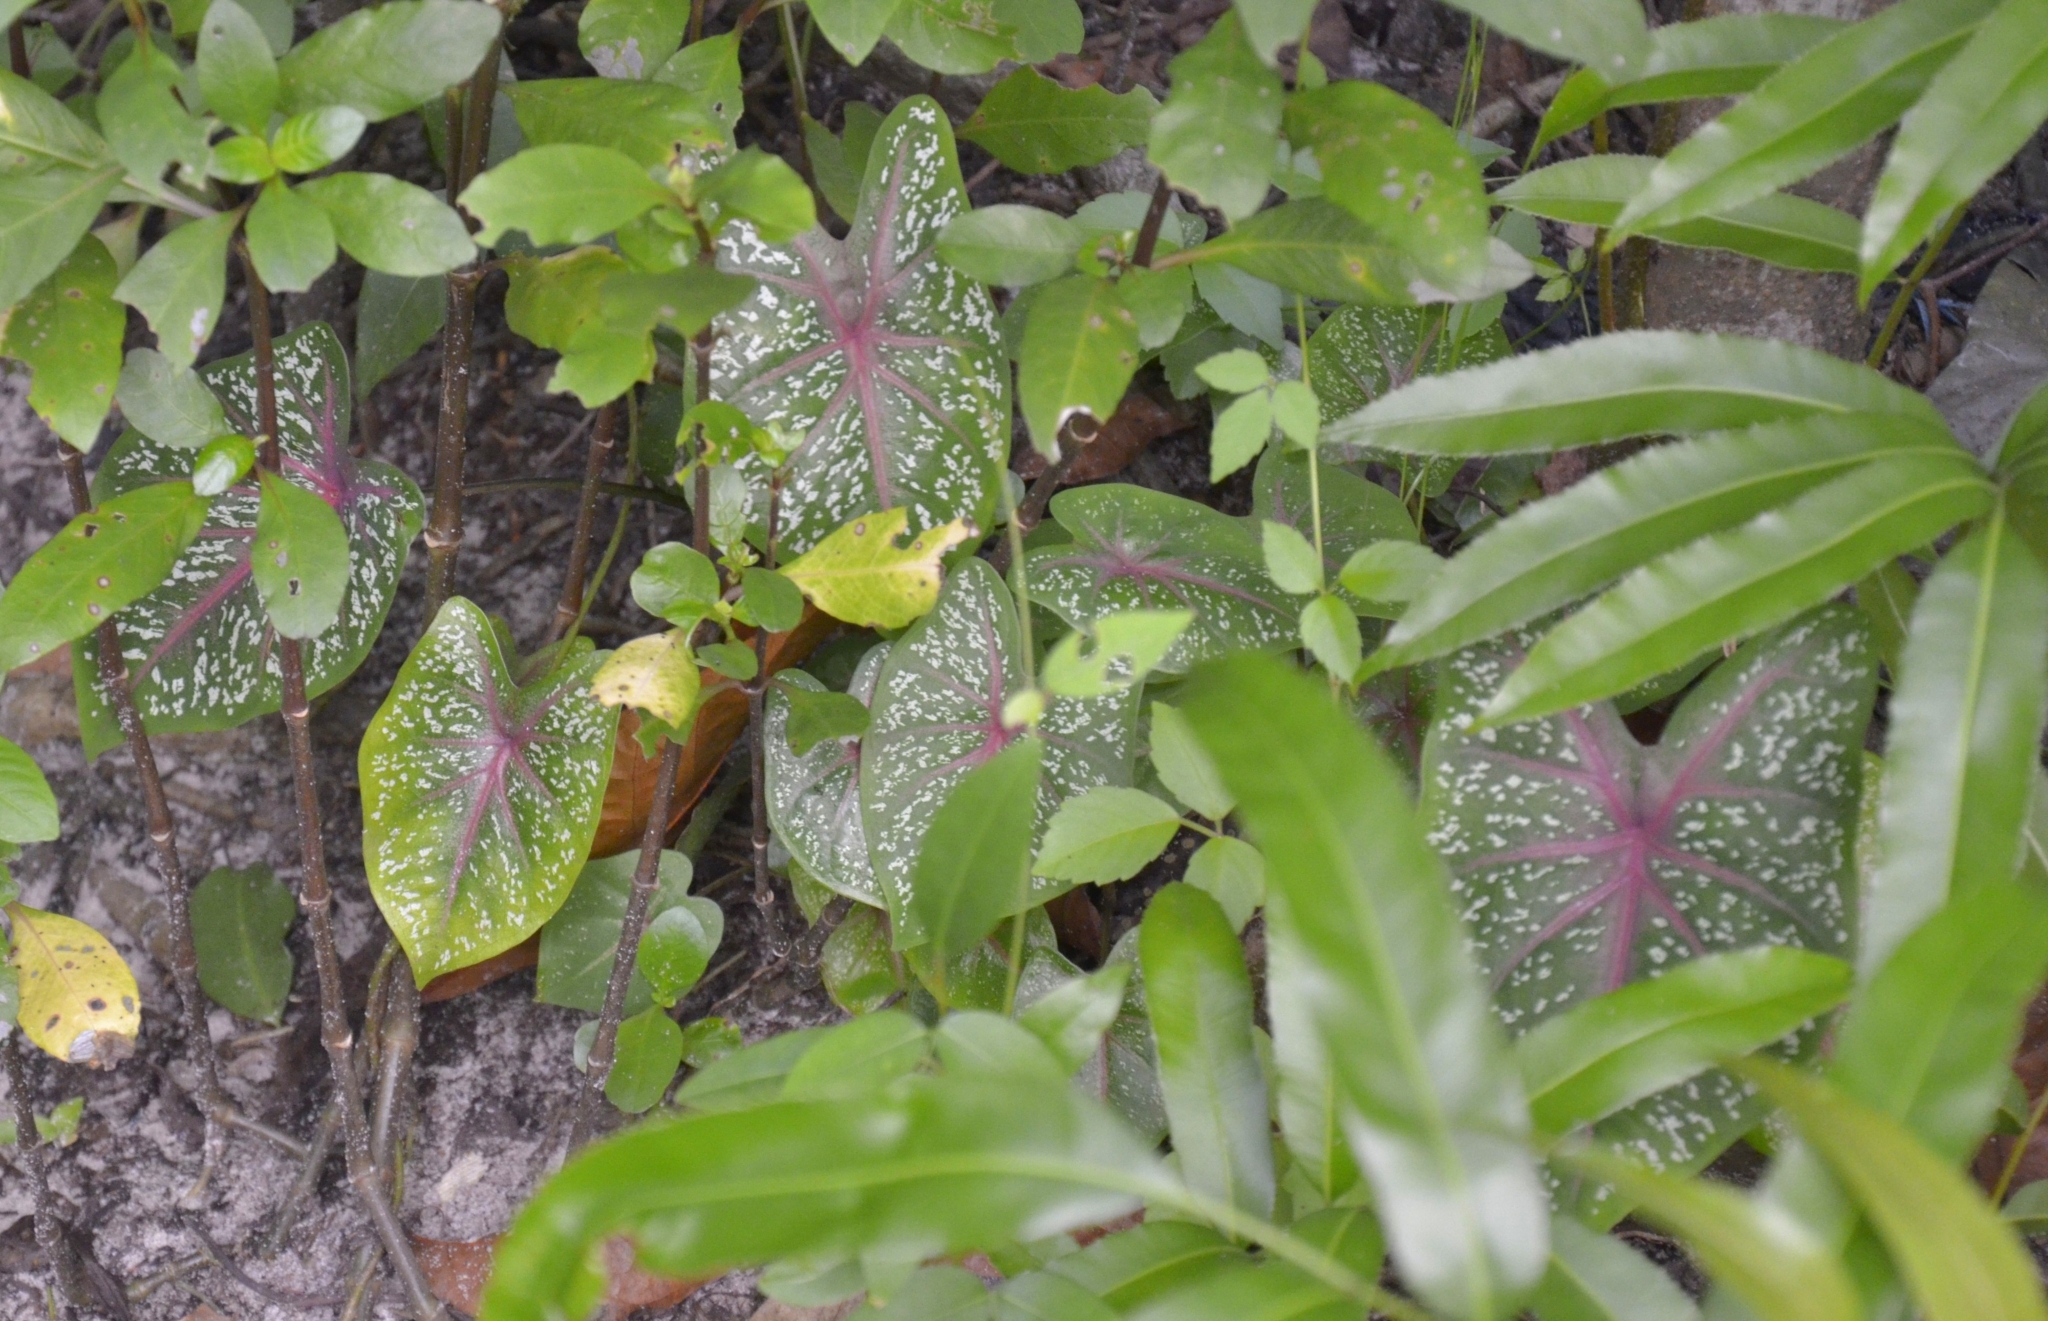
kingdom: Plantae
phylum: Tracheophyta
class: Liliopsida
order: Alismatales
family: Araceae
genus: Caladium
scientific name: Caladium bicolor
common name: Artist's pallet
